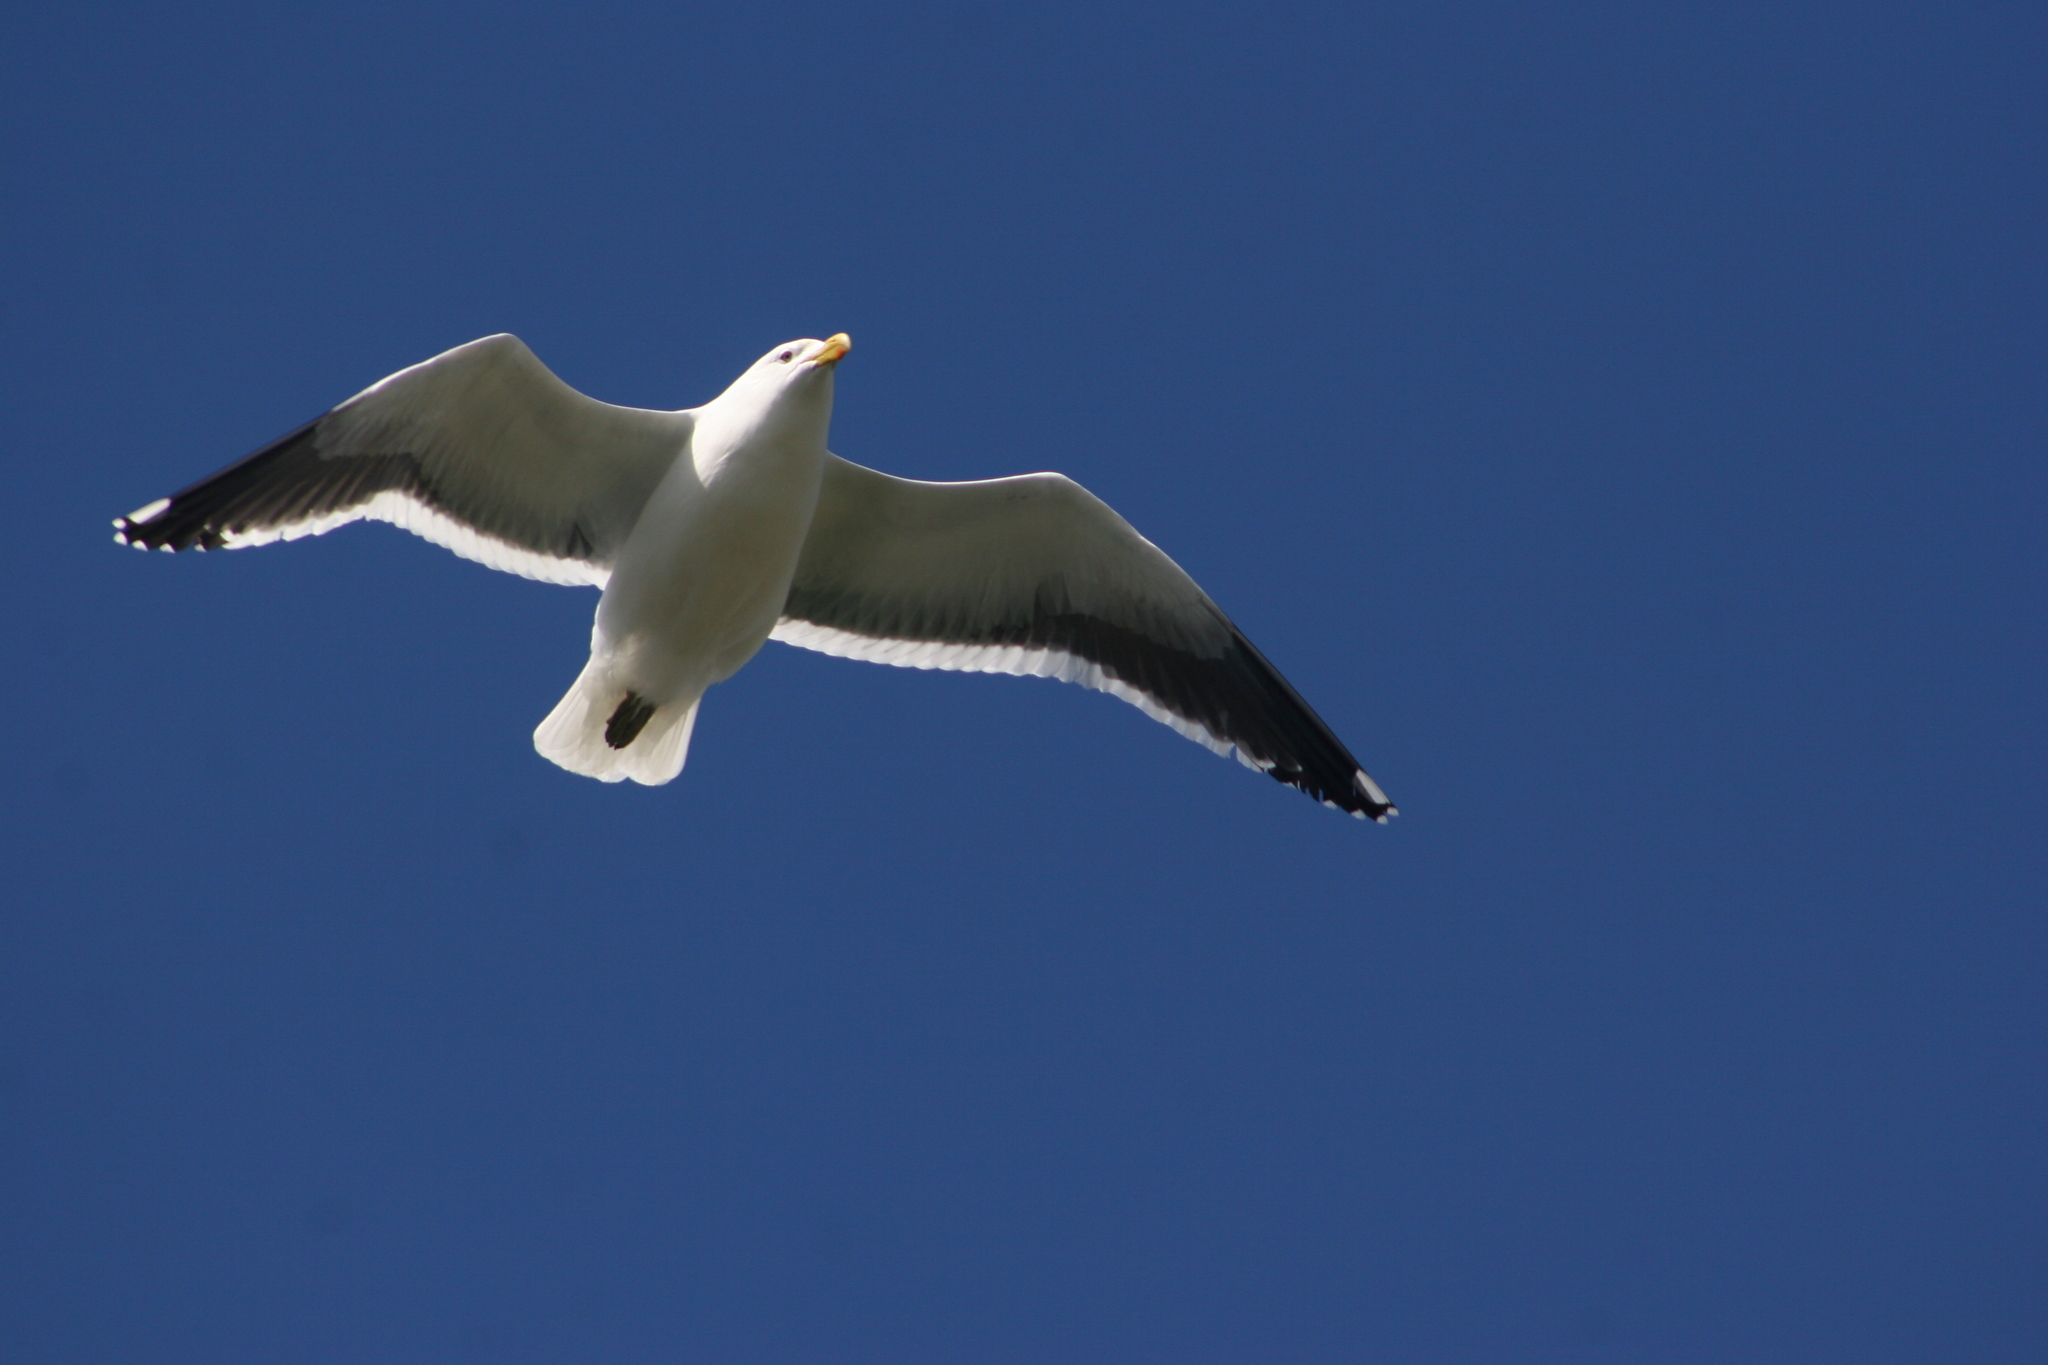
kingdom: Animalia
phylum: Chordata
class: Aves
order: Charadriiformes
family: Laridae
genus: Larus
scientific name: Larus dominicanus
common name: Kelp gull
